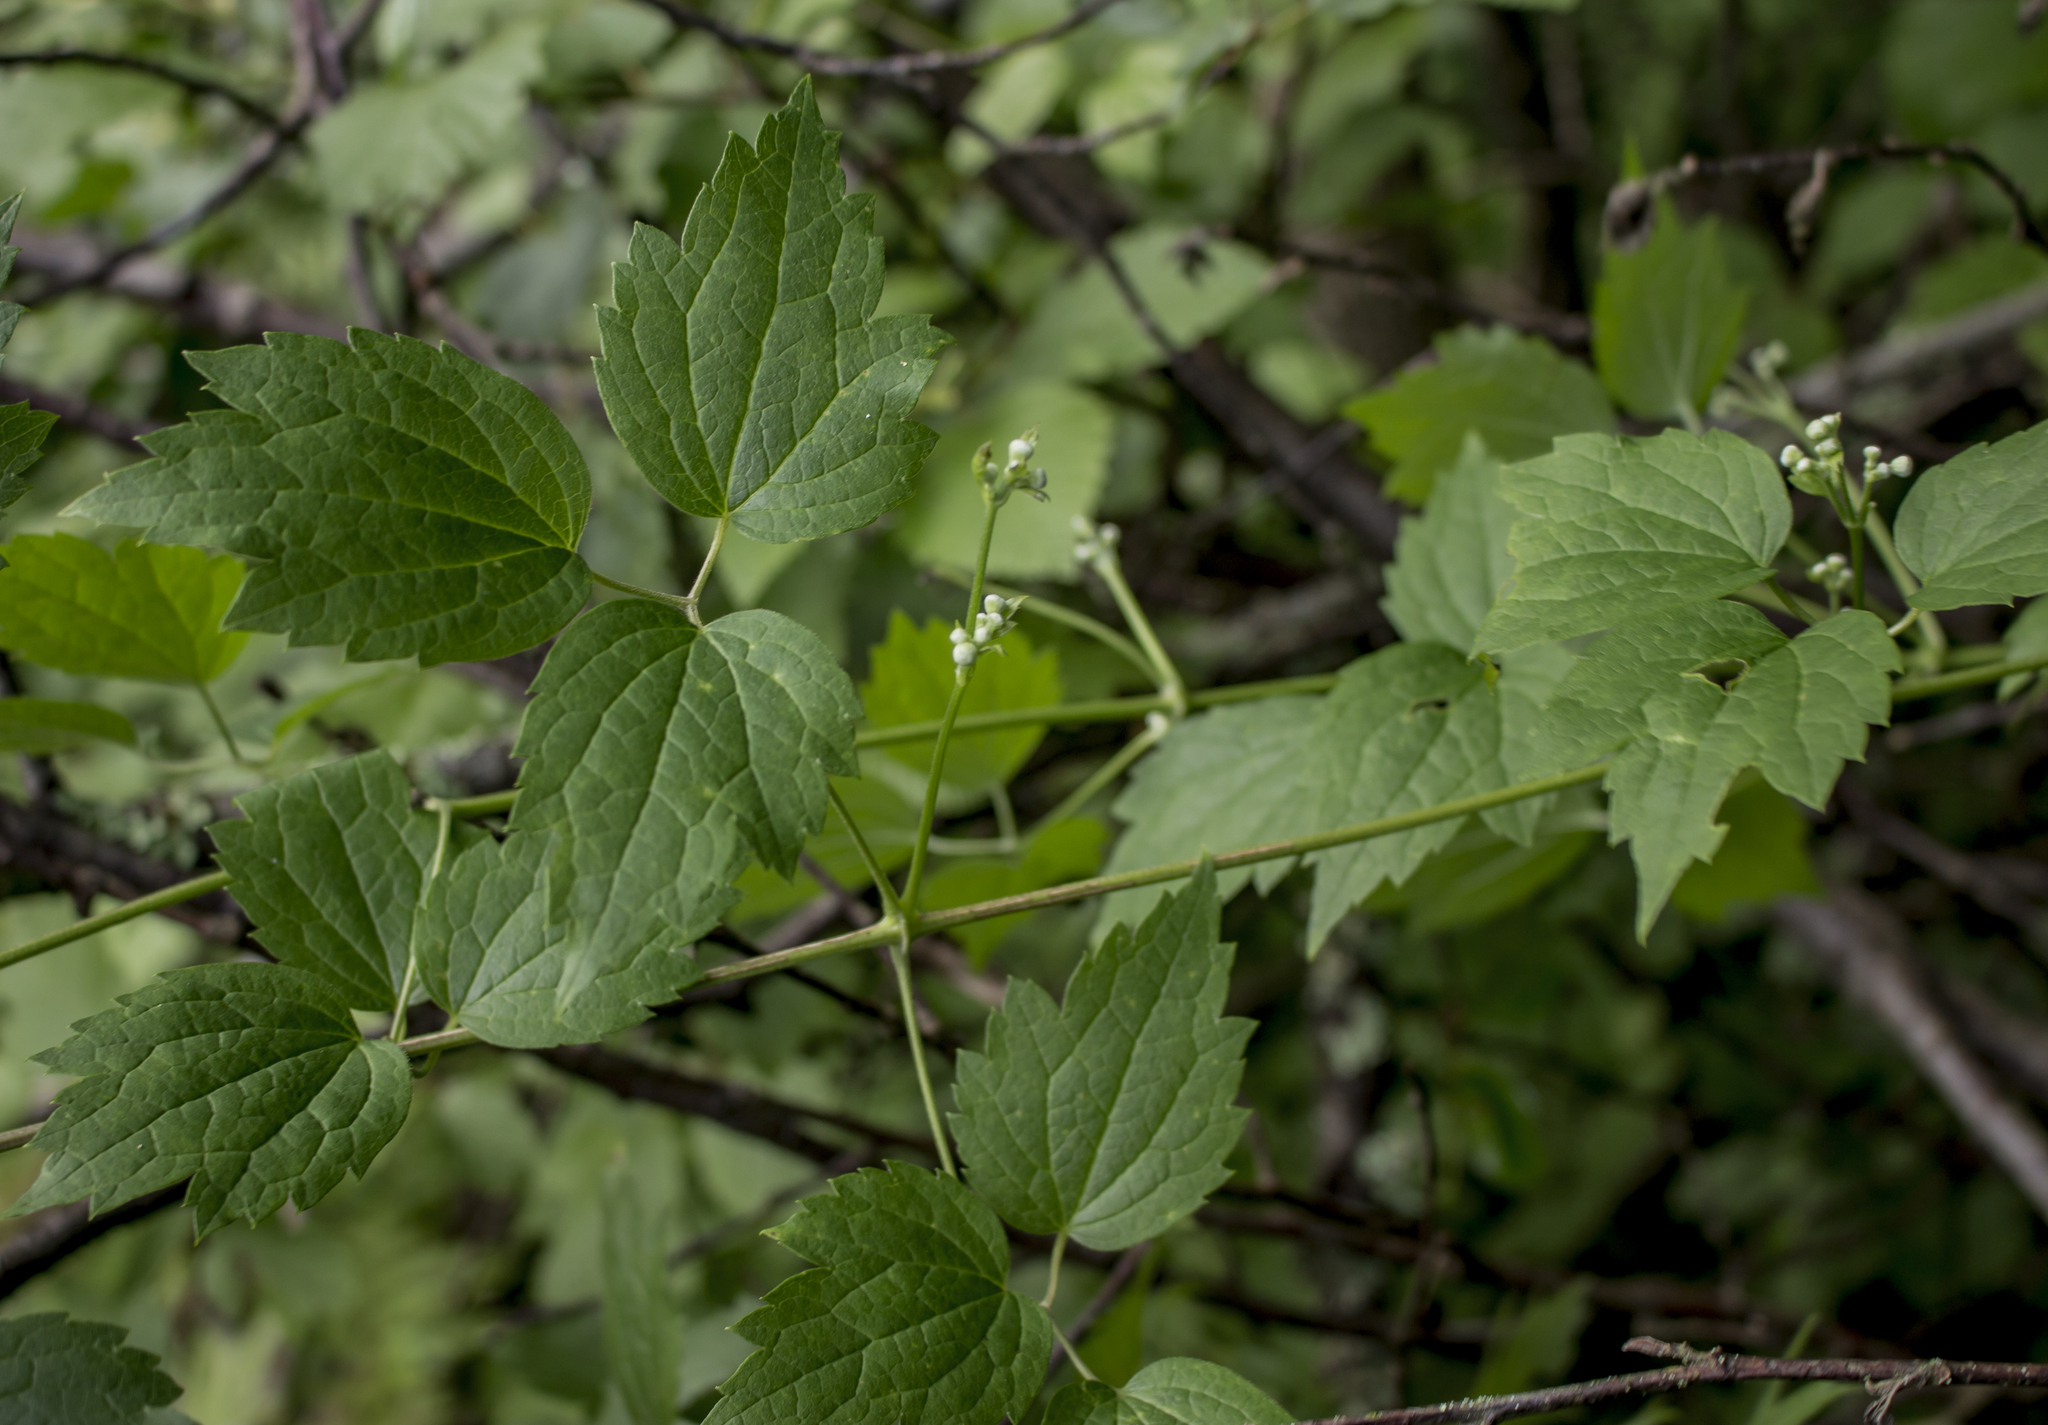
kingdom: Plantae
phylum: Tracheophyta
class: Magnoliopsida
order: Ranunculales
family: Ranunculaceae
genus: Clematis
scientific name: Clematis virginiana
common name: Virgin's-bower
